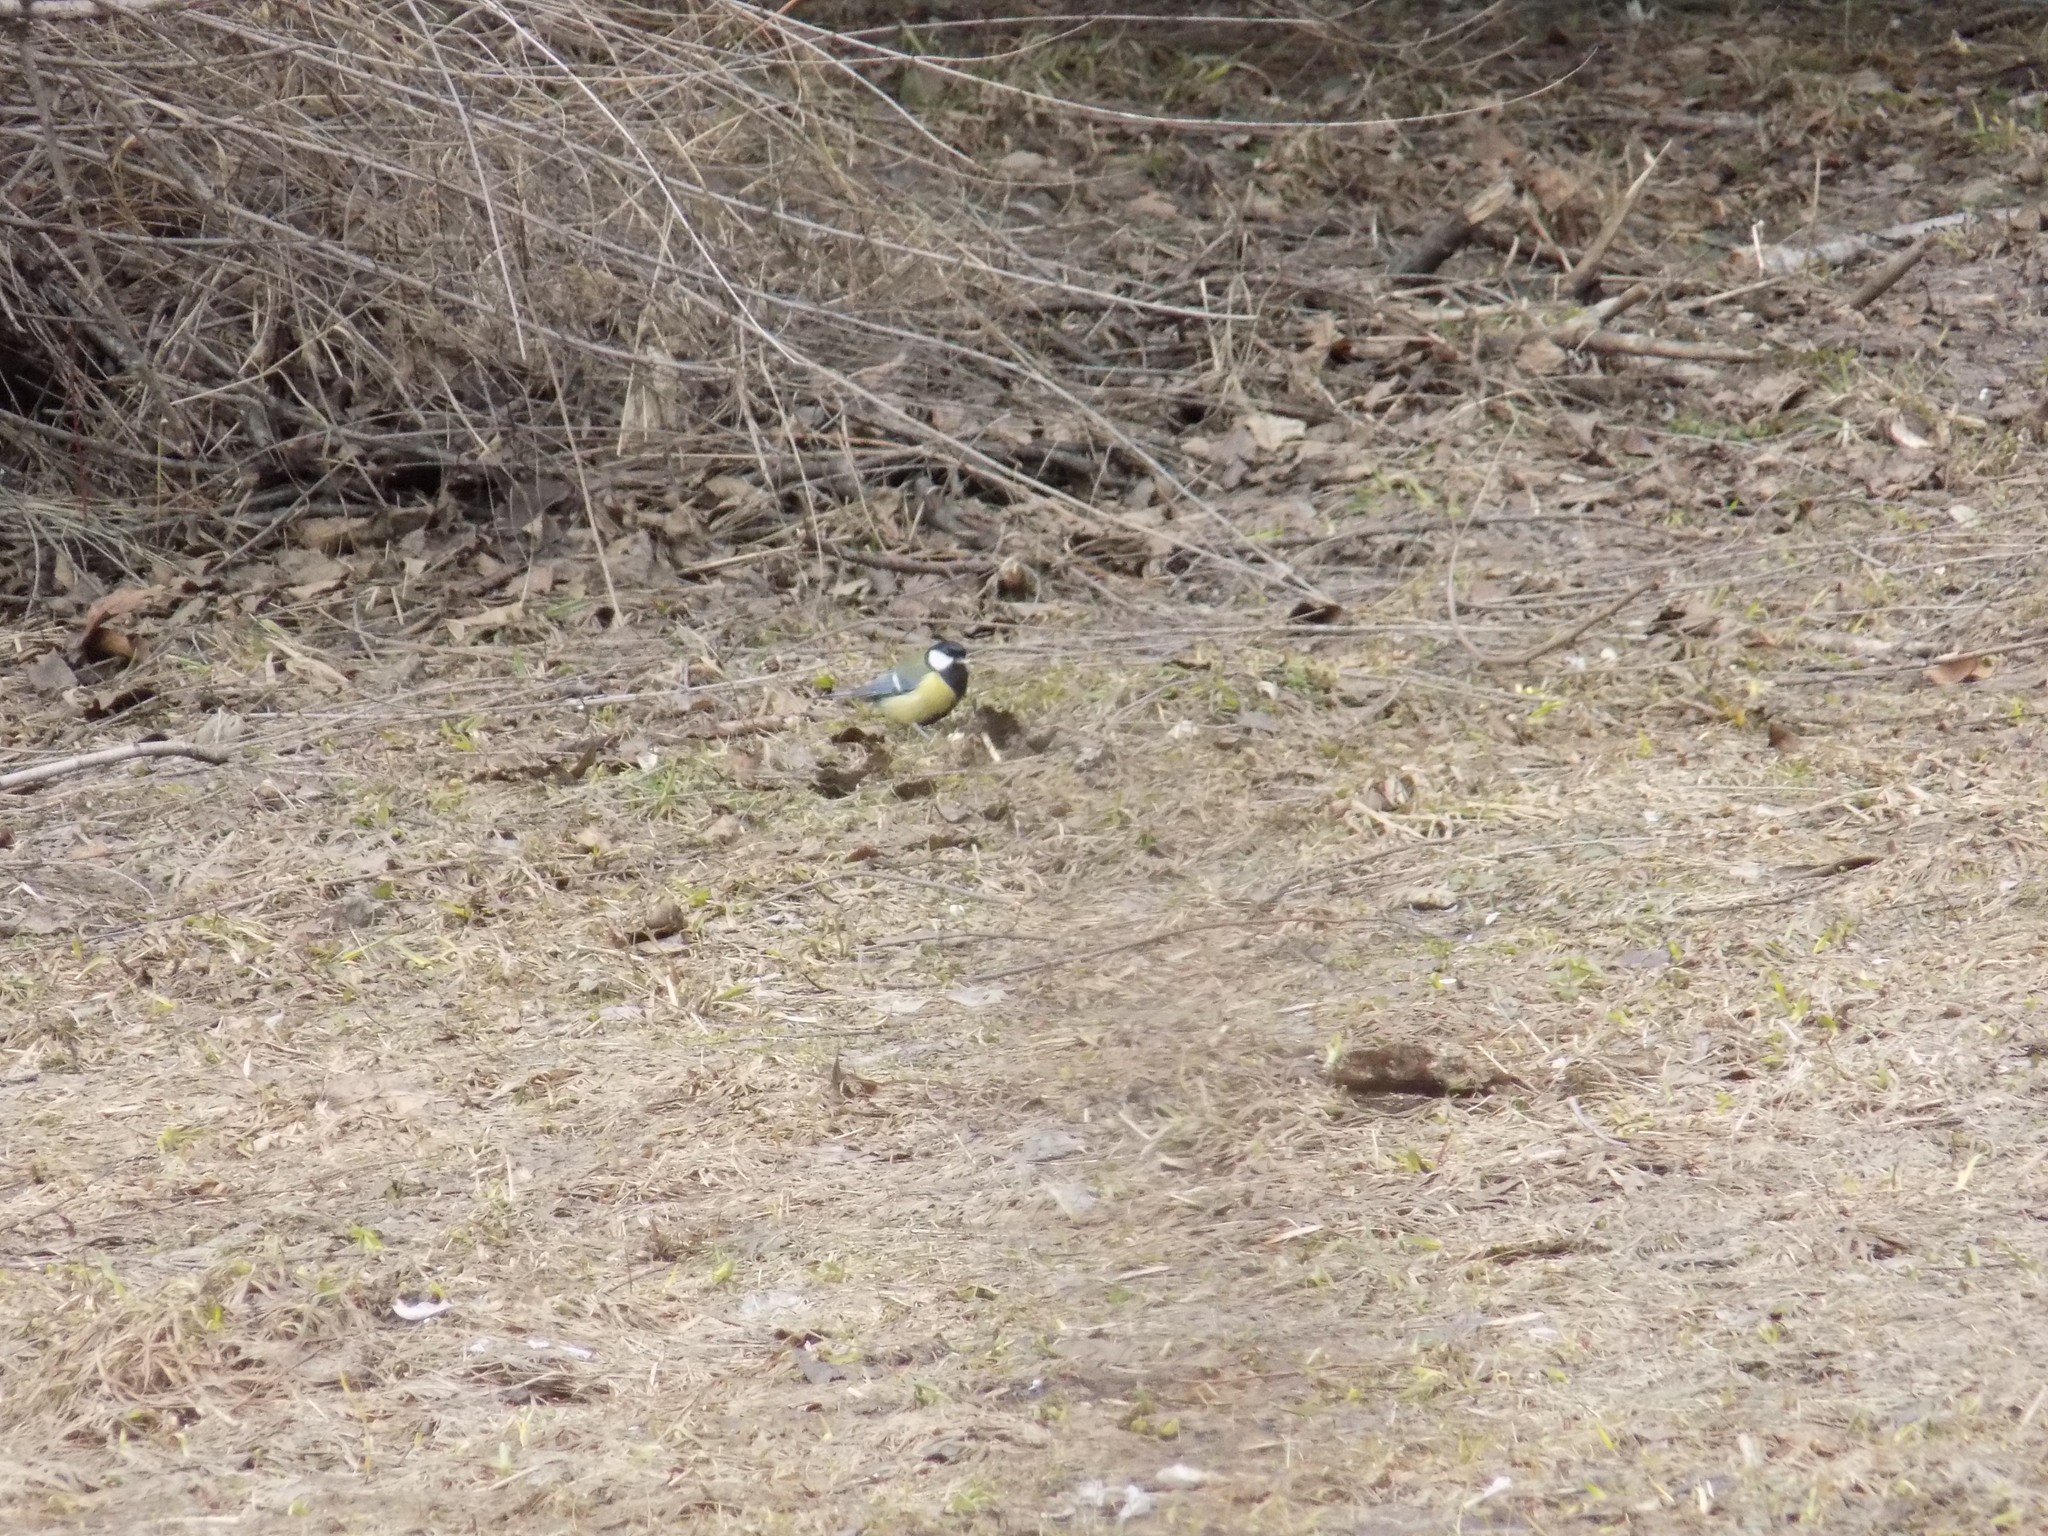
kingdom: Animalia
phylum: Chordata
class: Aves
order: Passeriformes
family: Paridae
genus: Parus
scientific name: Parus major
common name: Great tit
